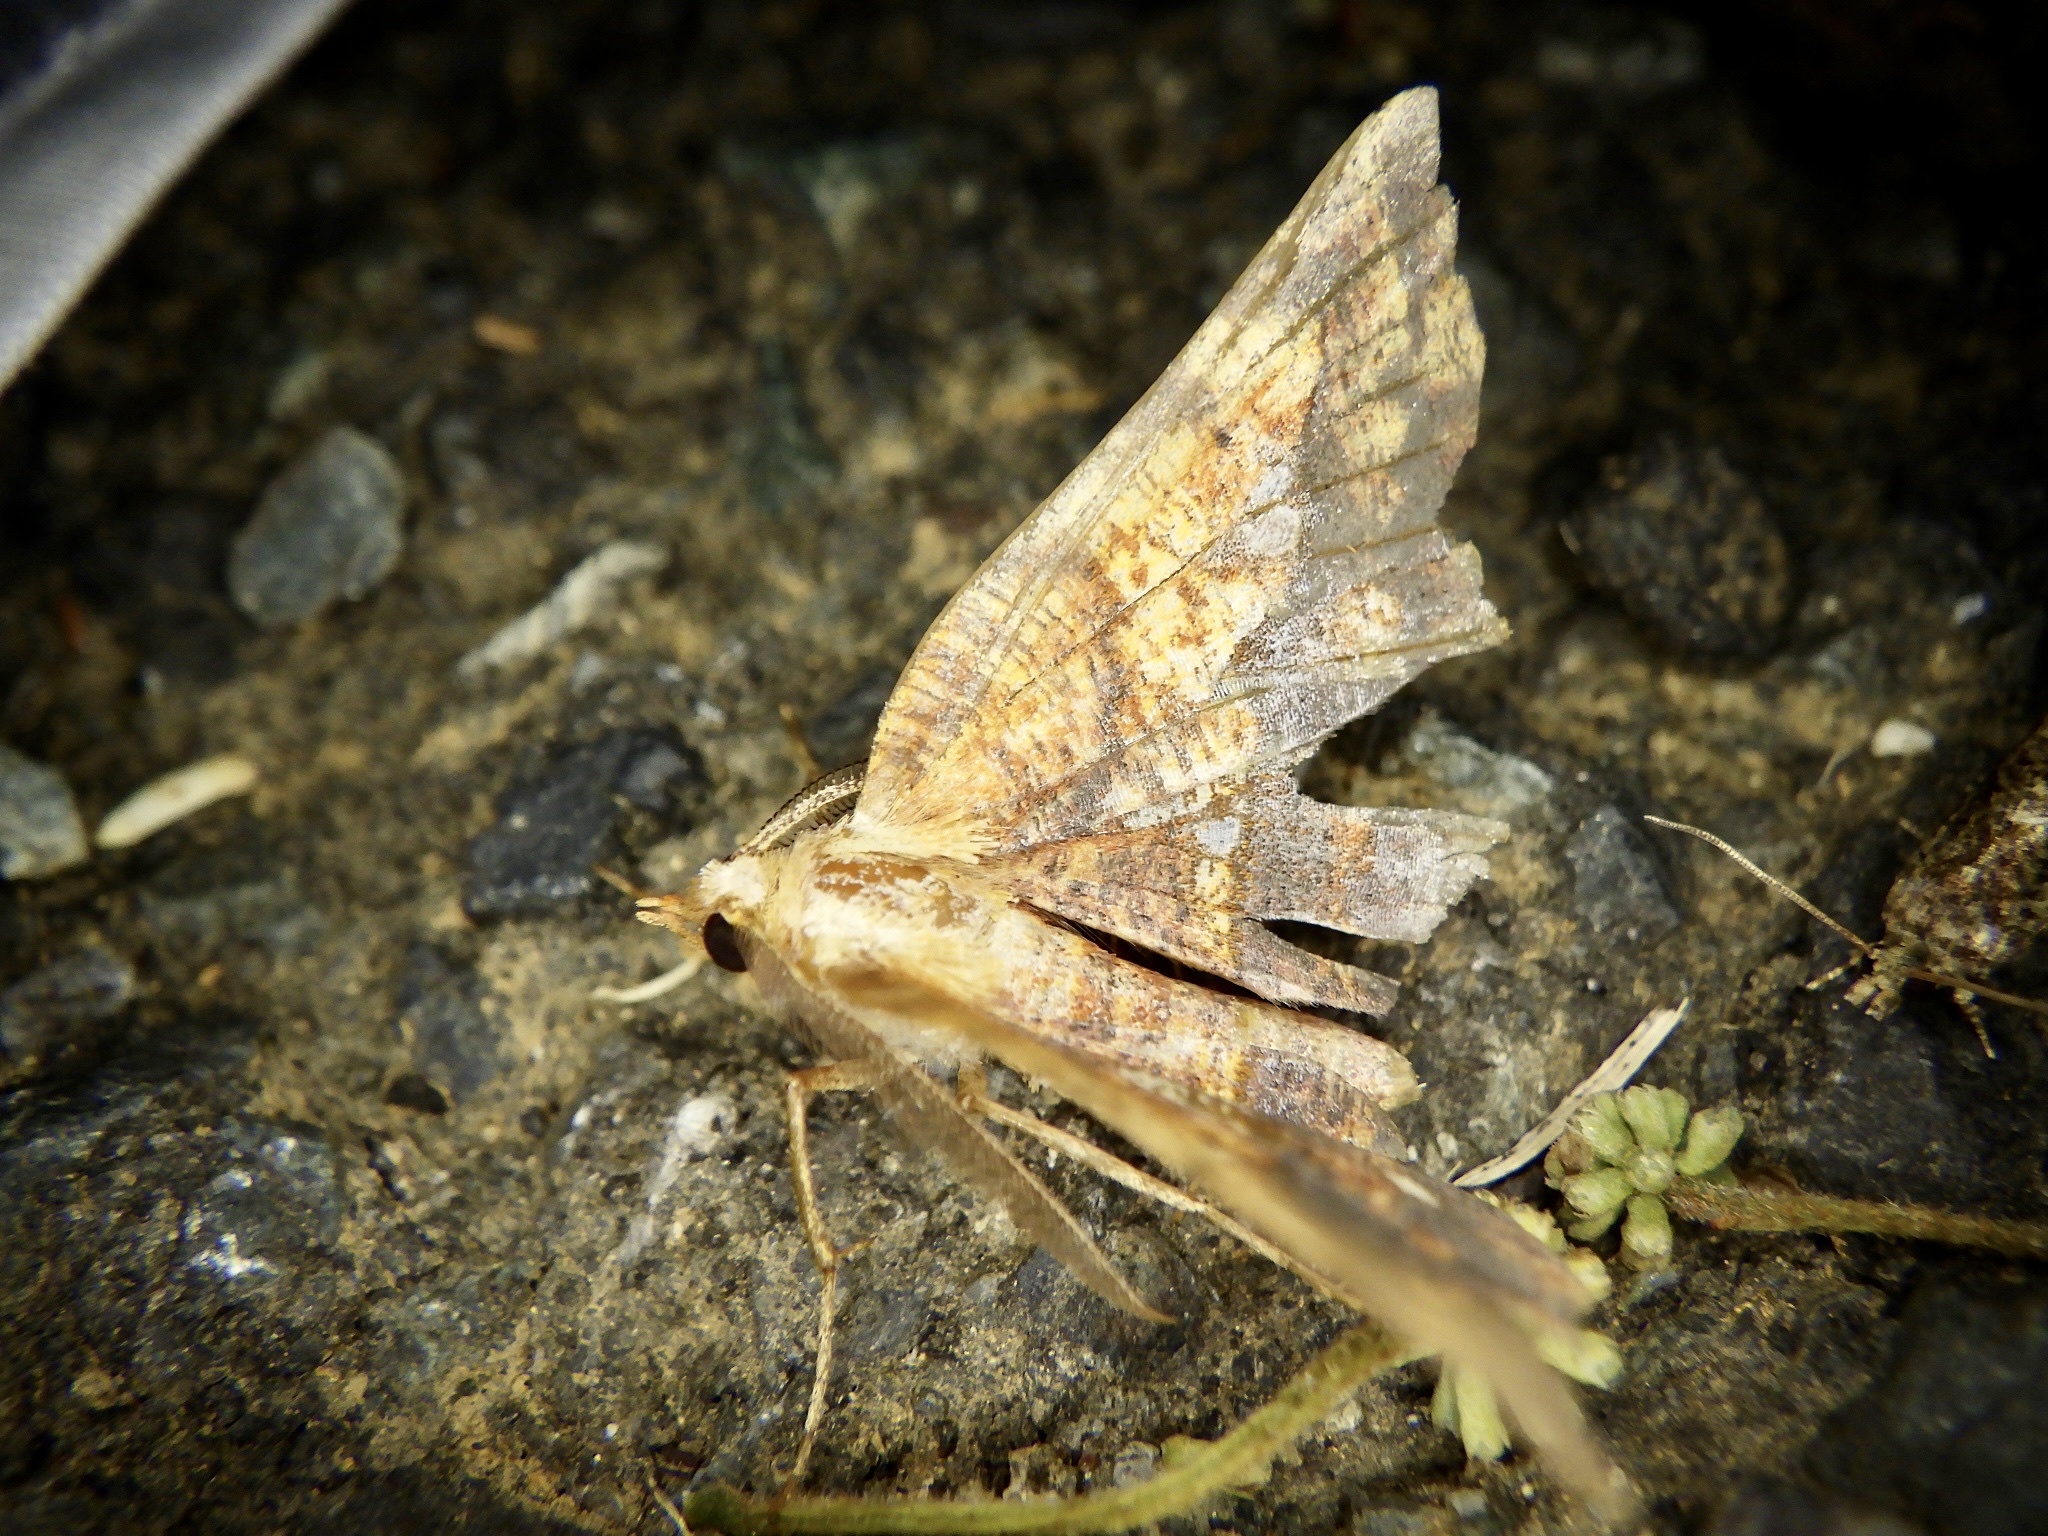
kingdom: Animalia
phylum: Arthropoda
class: Insecta
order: Lepidoptera
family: Geometridae
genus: Garaeus
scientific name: Garaeus specularis
